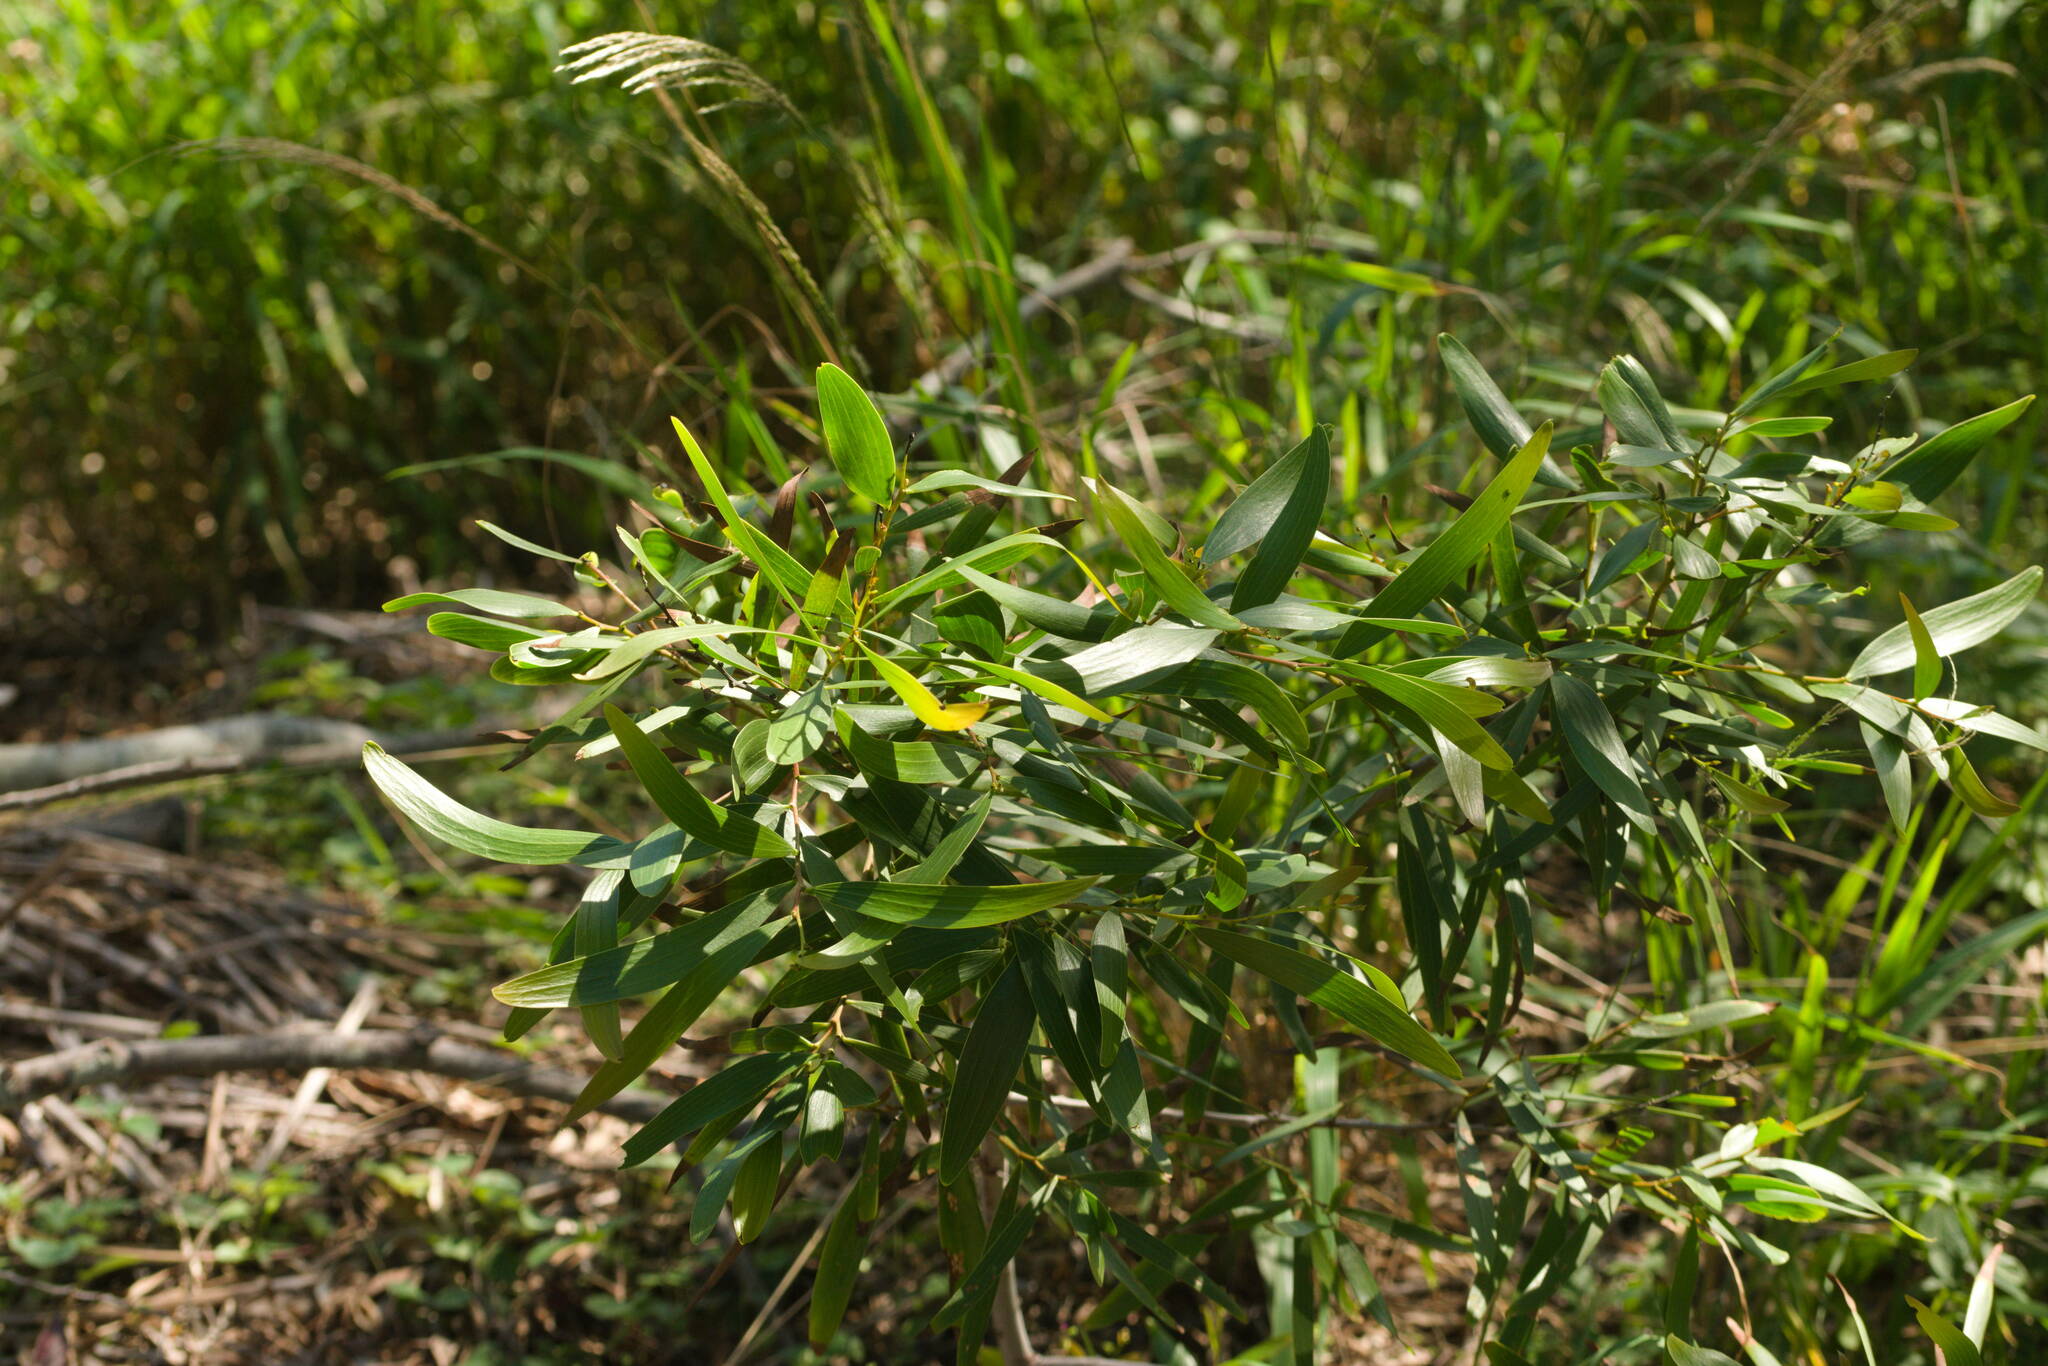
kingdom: Plantae
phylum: Tracheophyta
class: Magnoliopsida
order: Fabales
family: Fabaceae
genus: Acacia
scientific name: Acacia confusa
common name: Formosan koa
